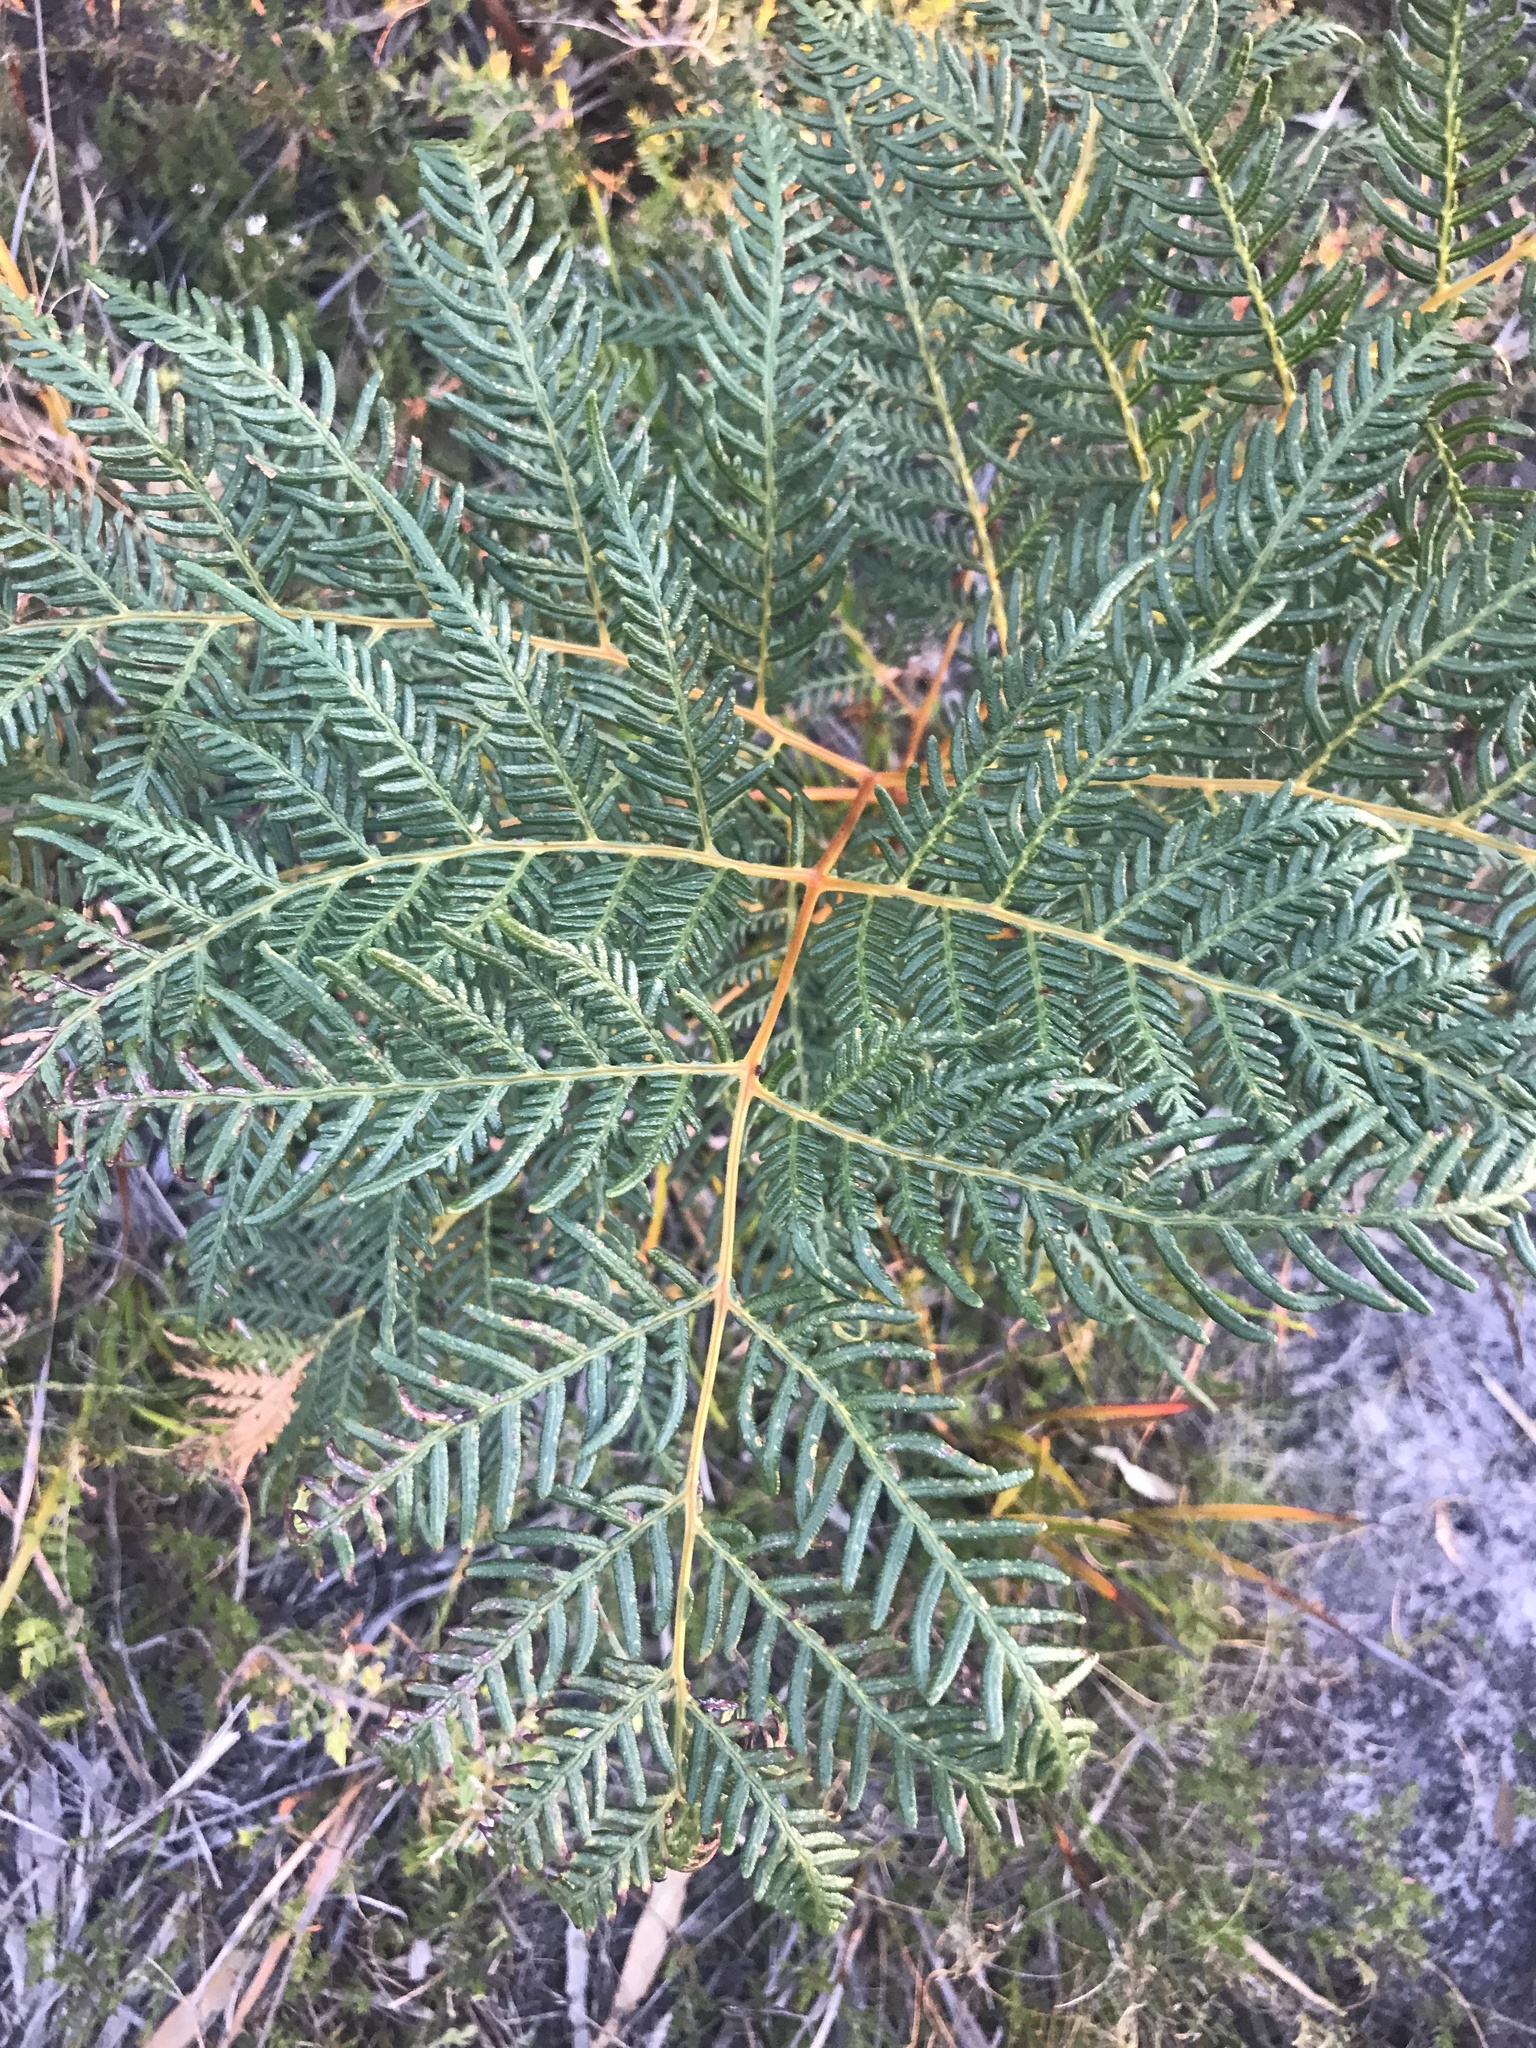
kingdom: Plantae
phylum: Tracheophyta
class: Polypodiopsida
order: Polypodiales
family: Dennstaedtiaceae
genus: Pteridium
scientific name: Pteridium esculentum
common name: Bracken fern
